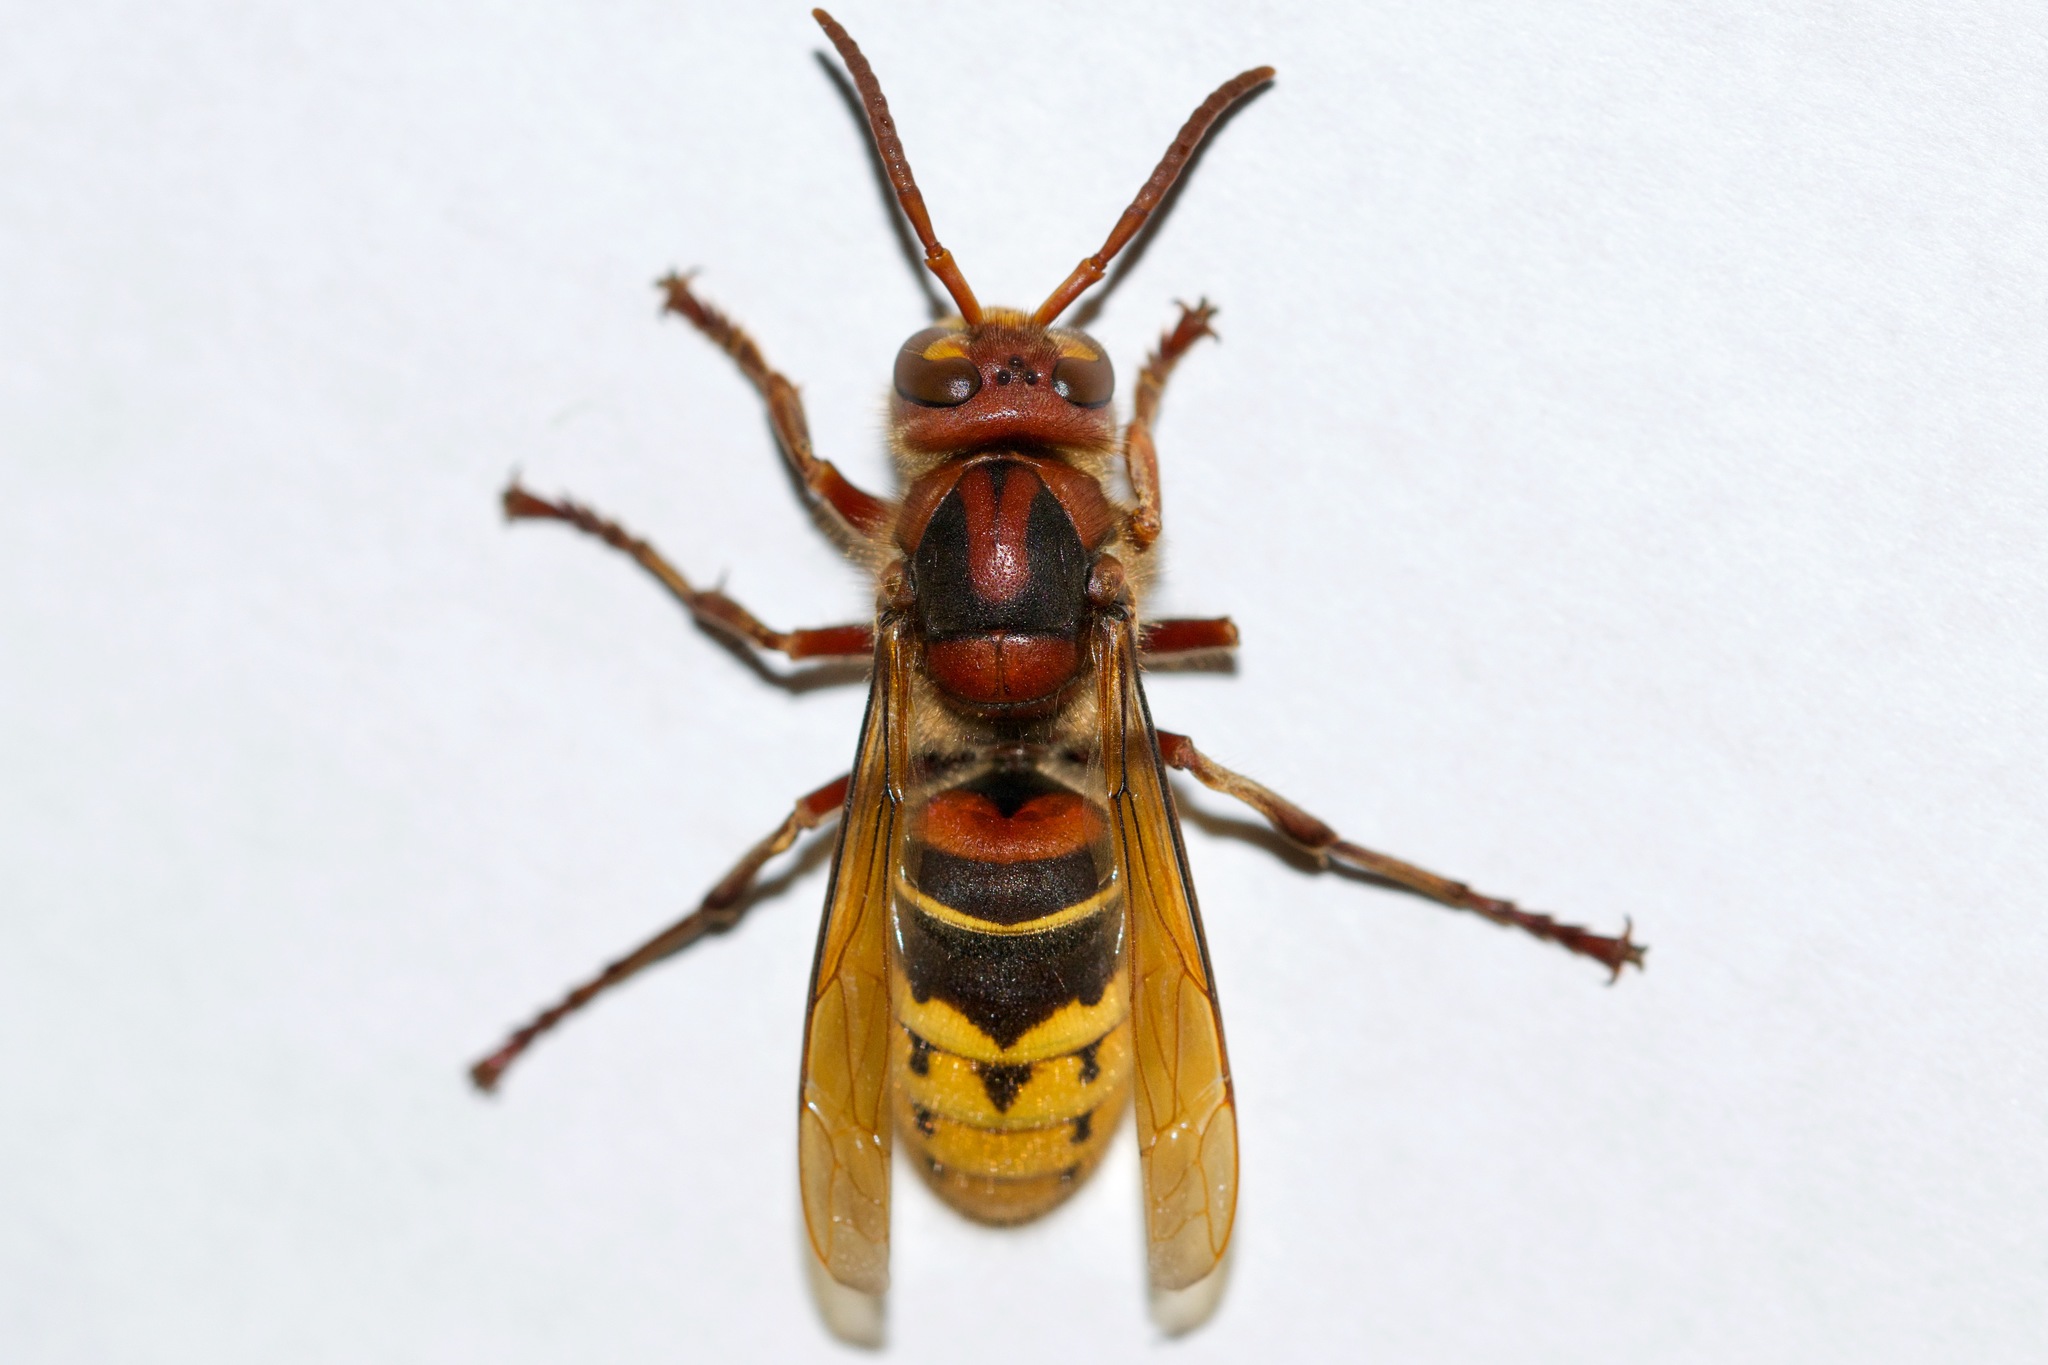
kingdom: Animalia
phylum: Arthropoda
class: Insecta
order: Hymenoptera
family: Vespidae
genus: Vespa
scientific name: Vespa crabro
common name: Hornet
